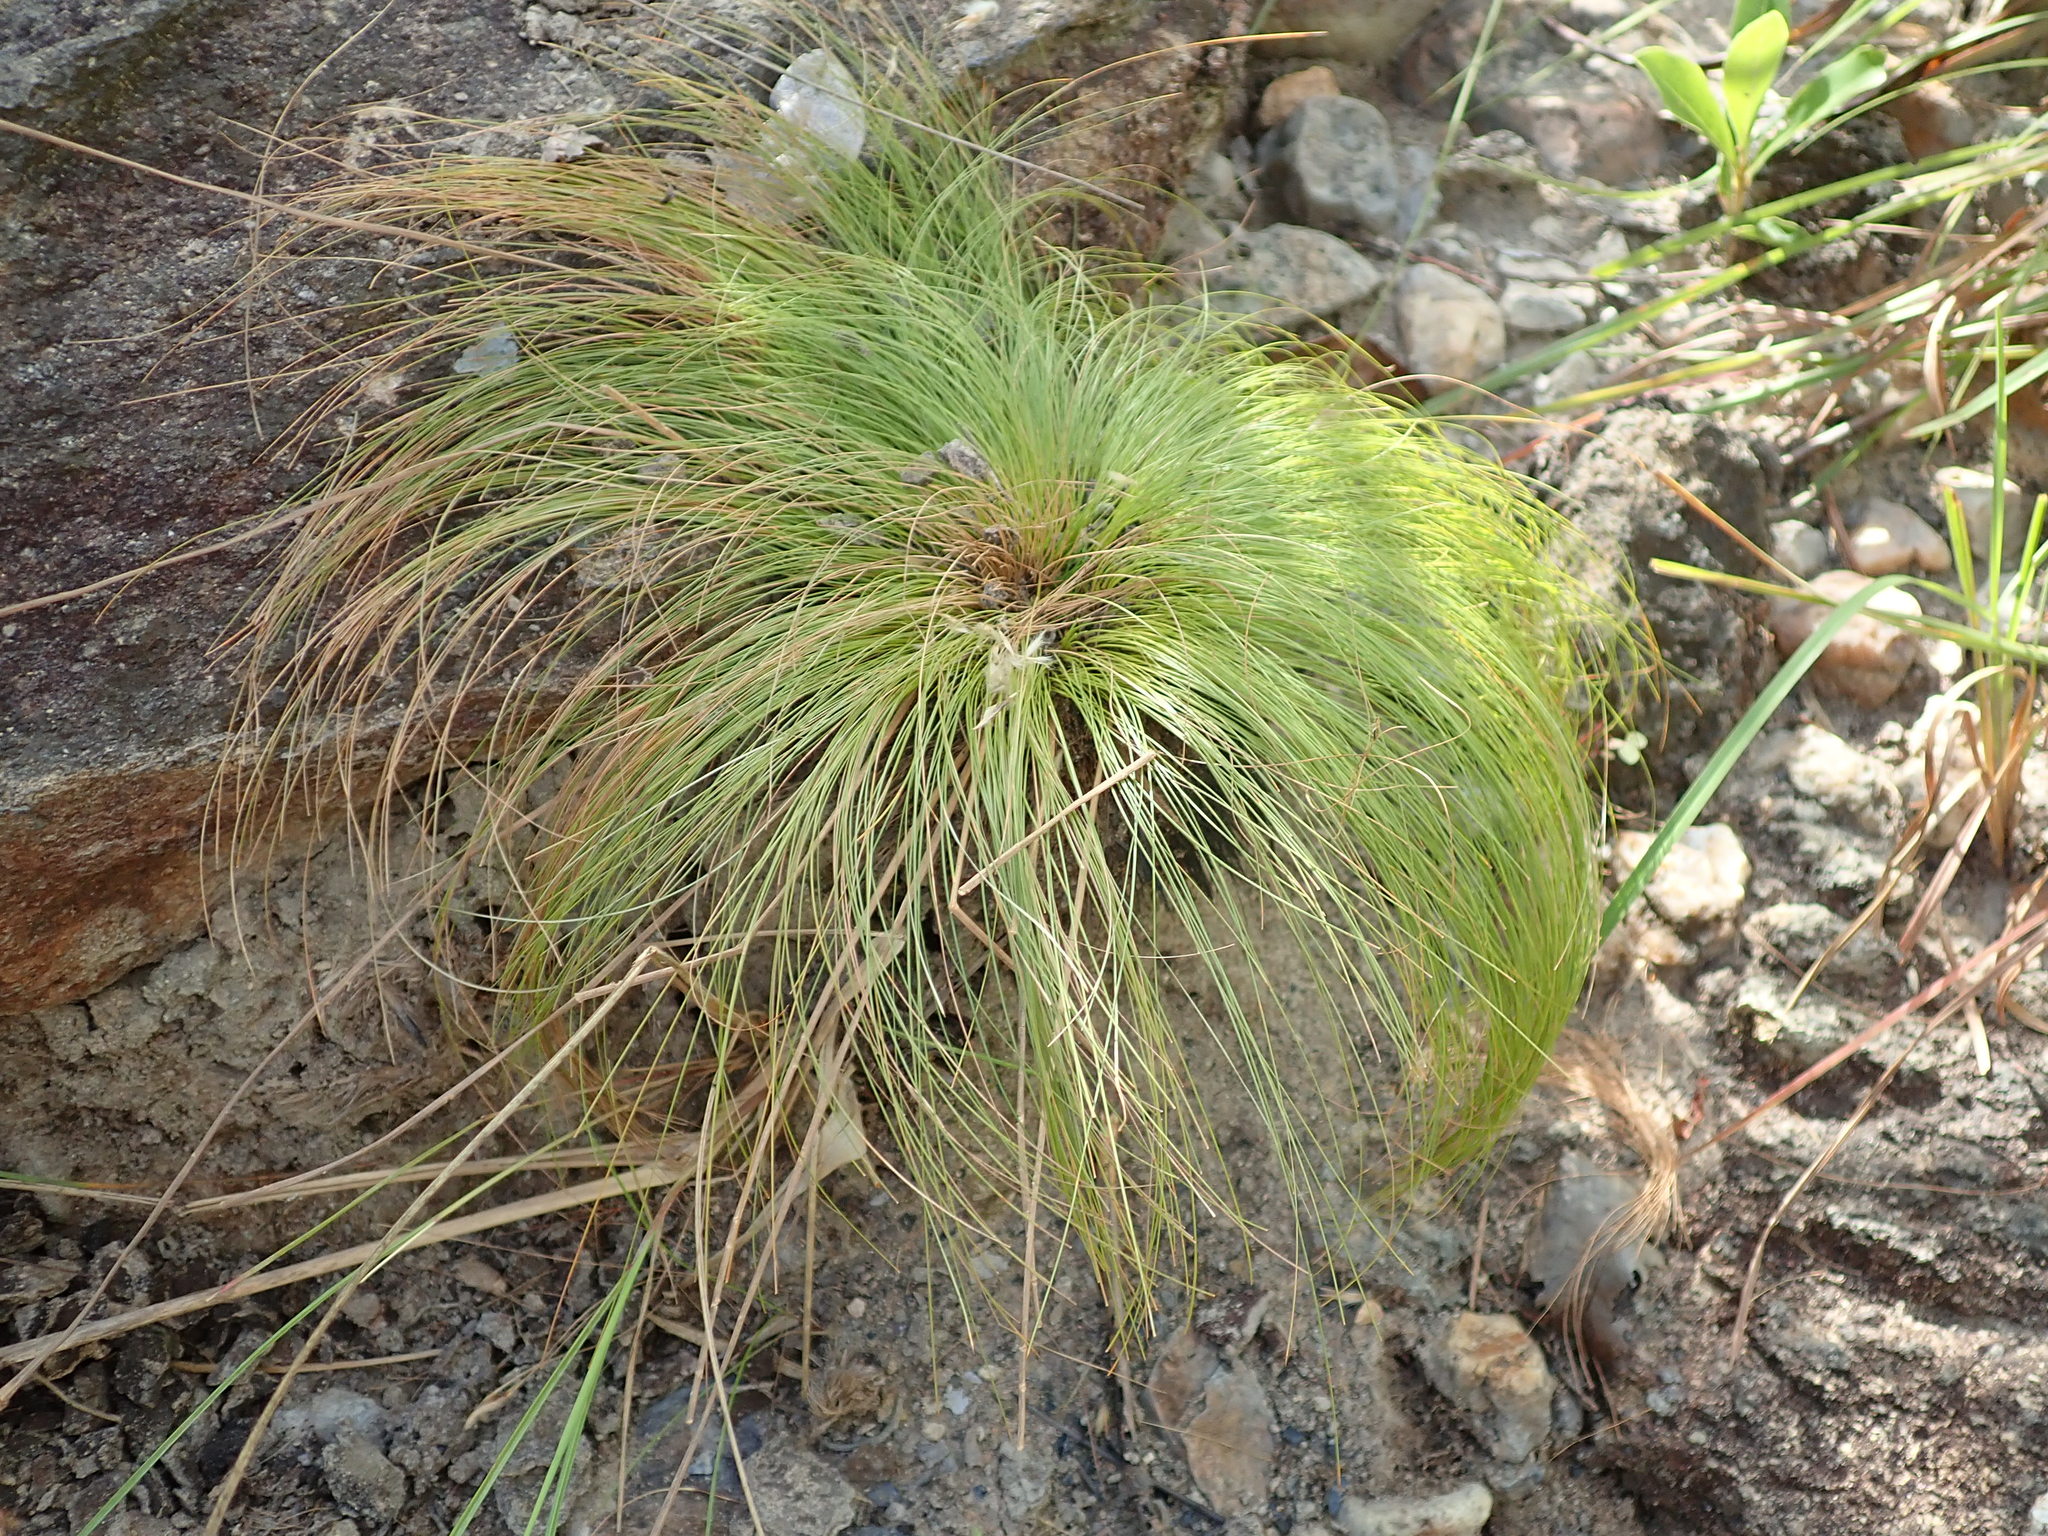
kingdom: Plantae
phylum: Tracheophyta
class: Liliopsida
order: Poales
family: Cyperaceae
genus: Bulbostylis
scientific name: Bulbostylis paradoxa
